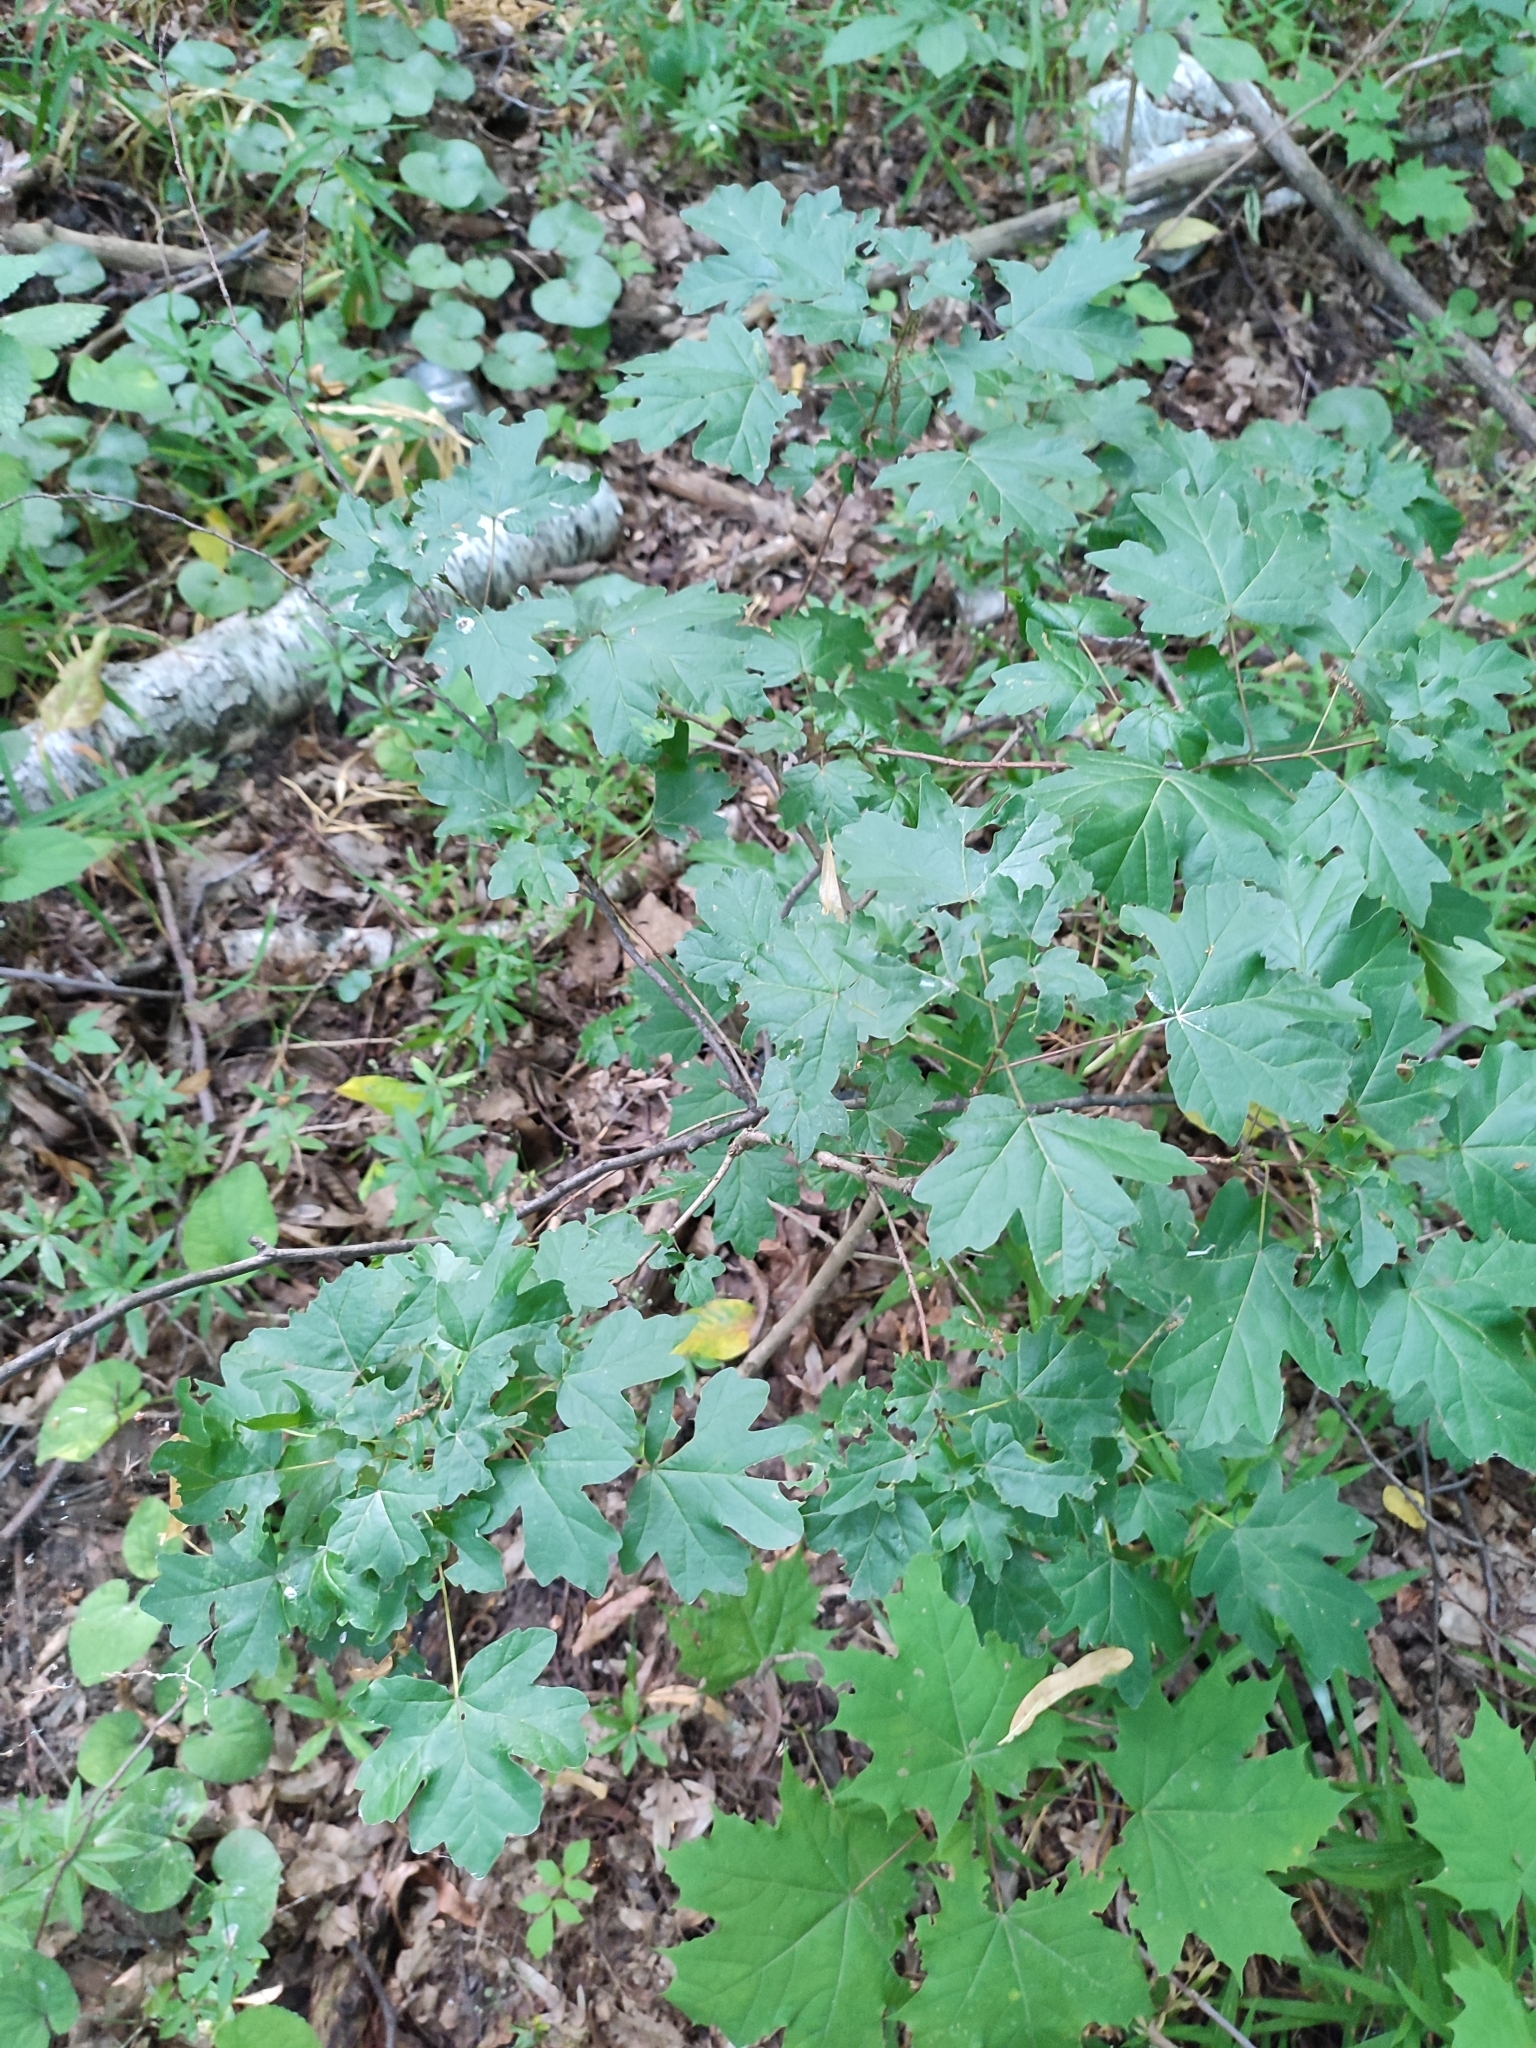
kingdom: Plantae
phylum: Tracheophyta
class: Magnoliopsida
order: Sapindales
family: Sapindaceae
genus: Acer
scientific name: Acer campestre
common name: Field maple
